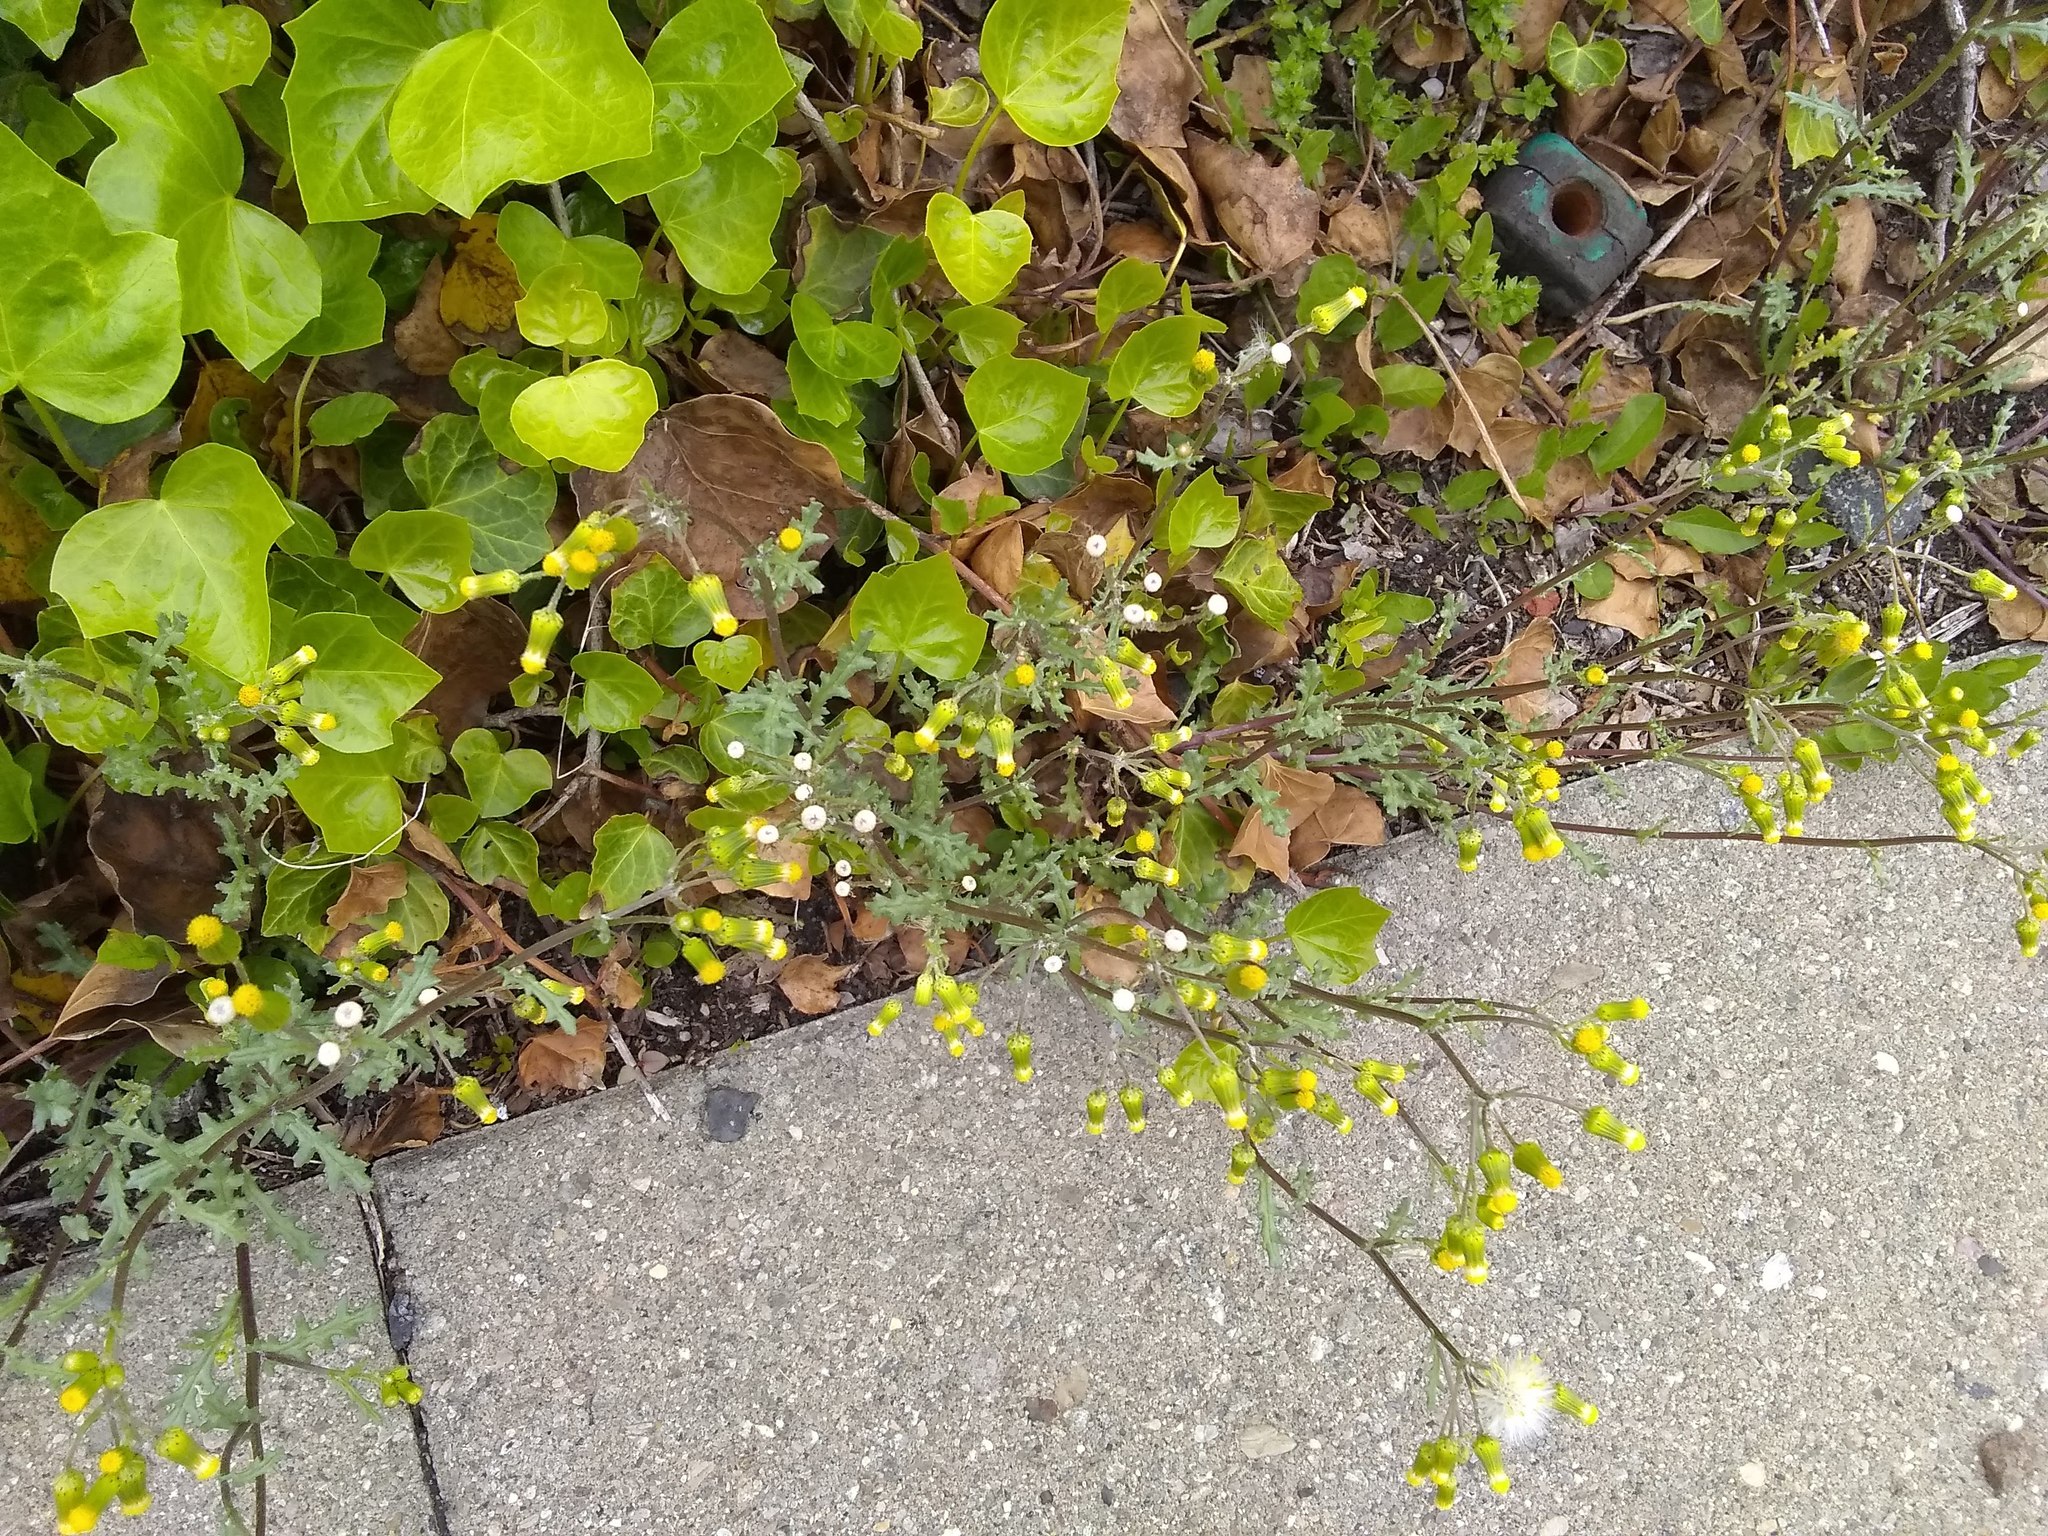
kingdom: Plantae
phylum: Tracheophyta
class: Magnoliopsida
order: Asterales
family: Asteraceae
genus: Senecio
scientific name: Senecio vulgaris
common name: Old-man-in-the-spring
